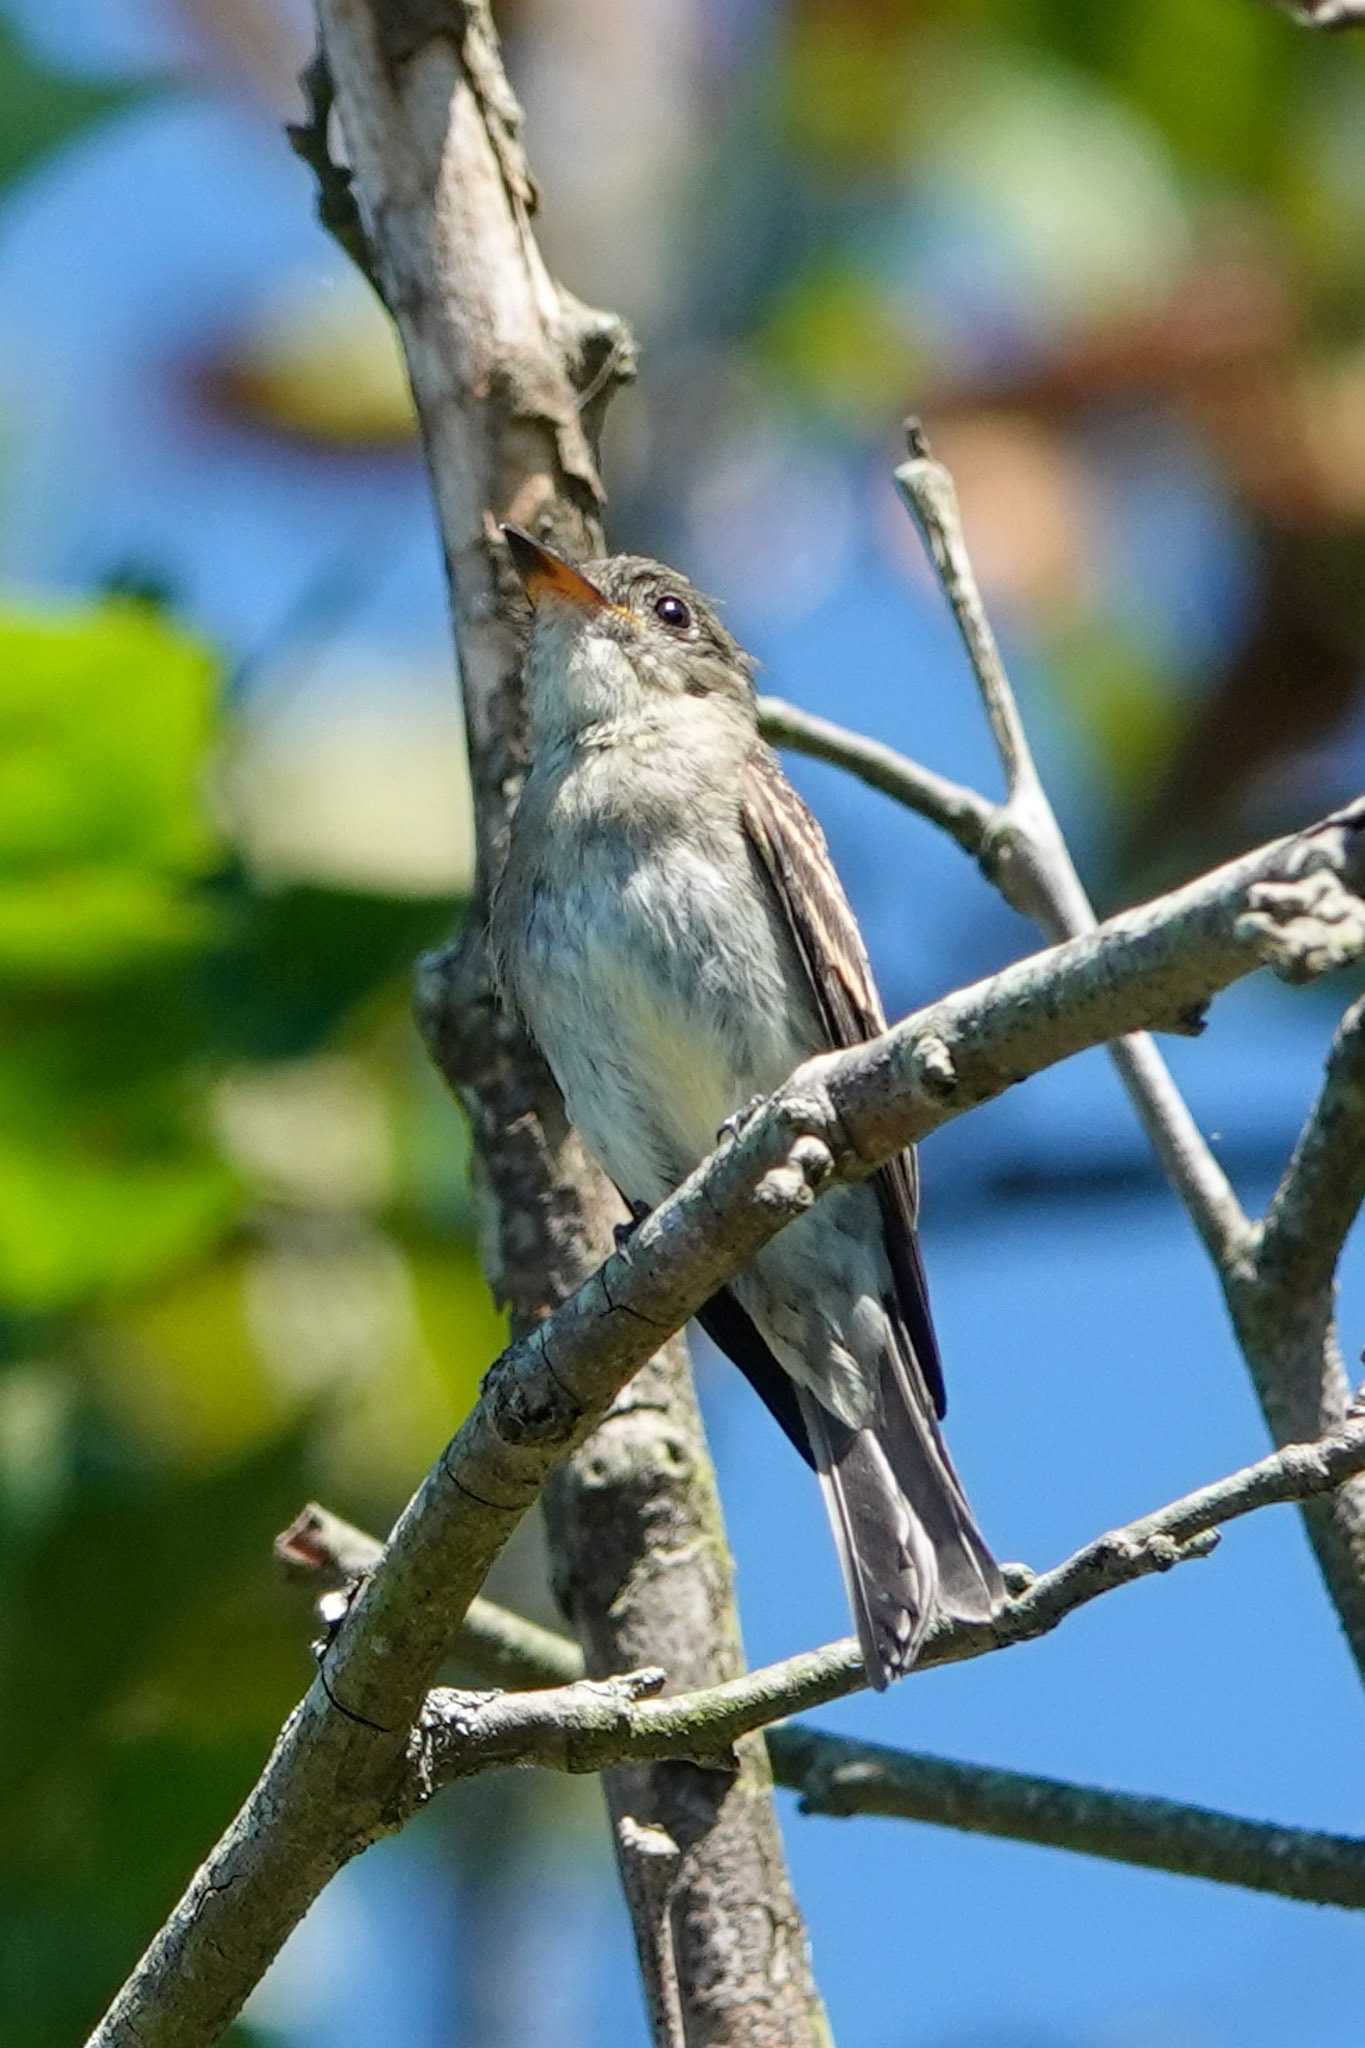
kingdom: Animalia
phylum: Chordata
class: Aves
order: Passeriformes
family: Tyrannidae
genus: Contopus
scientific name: Contopus virens
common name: Eastern wood-pewee
